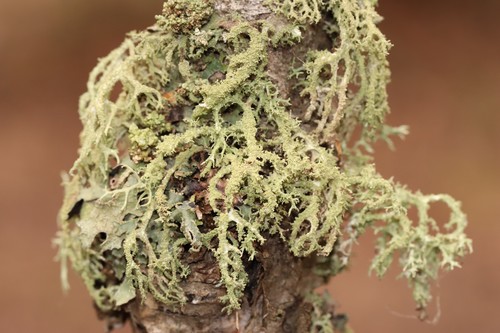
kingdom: Fungi
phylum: Ascomycota
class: Lecanoromycetes
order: Lecanorales
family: Parmeliaceae
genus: Evernia
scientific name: Evernia mesomorpha
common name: Boreal oak moss lichen
